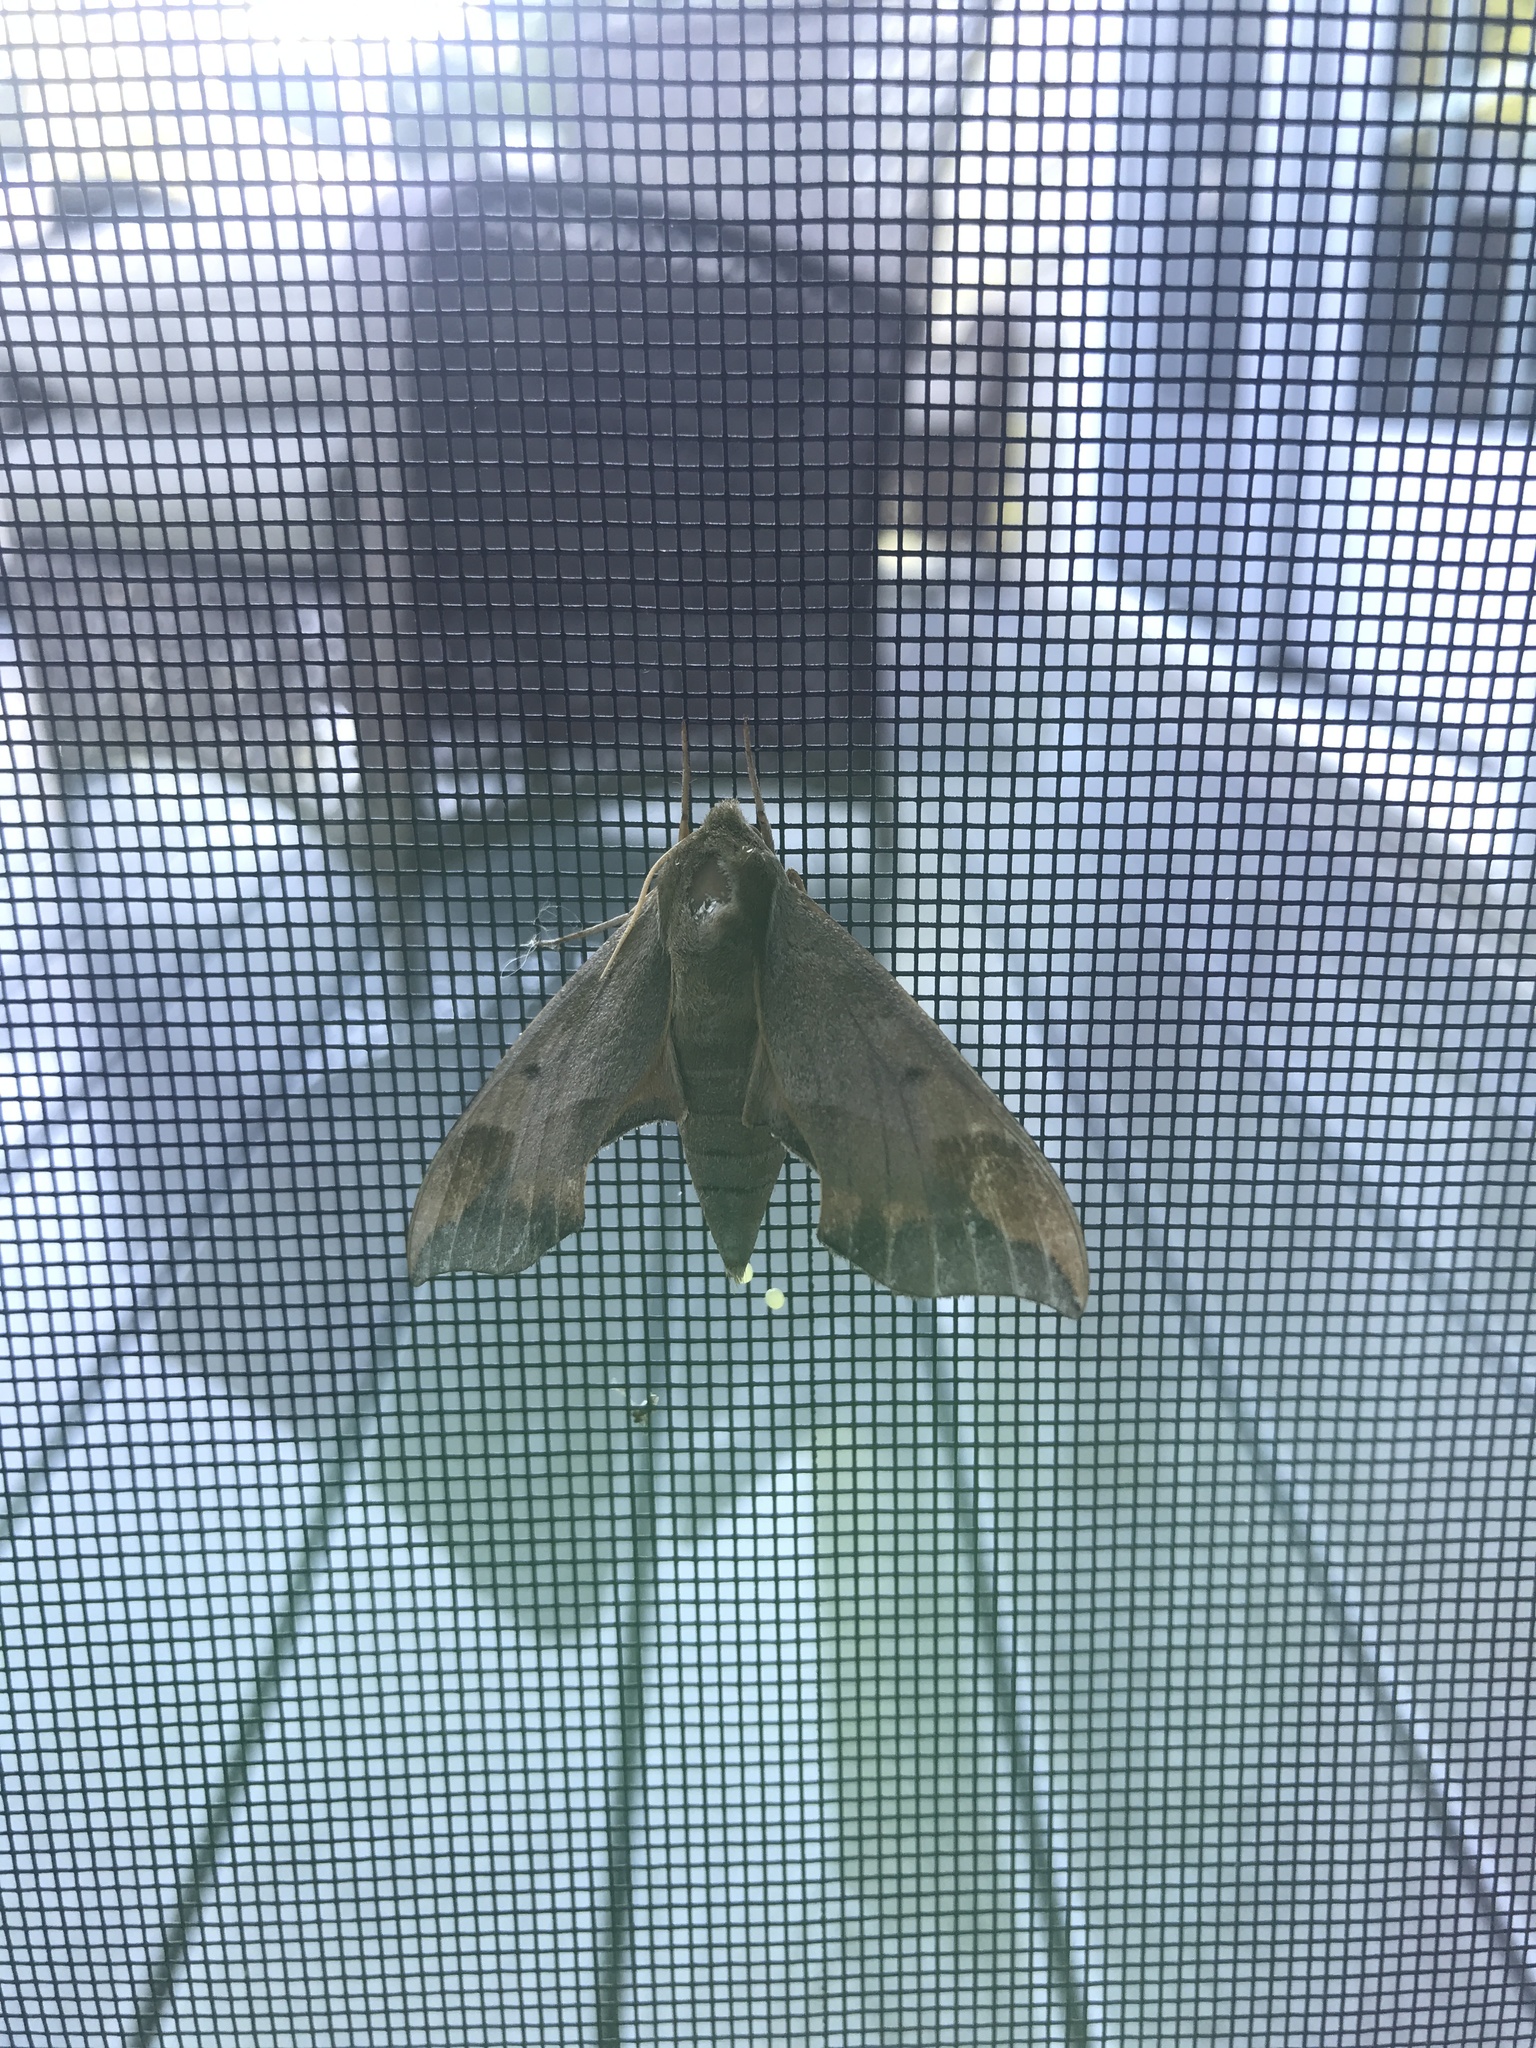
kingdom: Animalia
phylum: Arthropoda
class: Insecta
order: Lepidoptera
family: Sphingidae
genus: Darapsa
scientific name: Darapsa myron
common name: Hog sphinx
